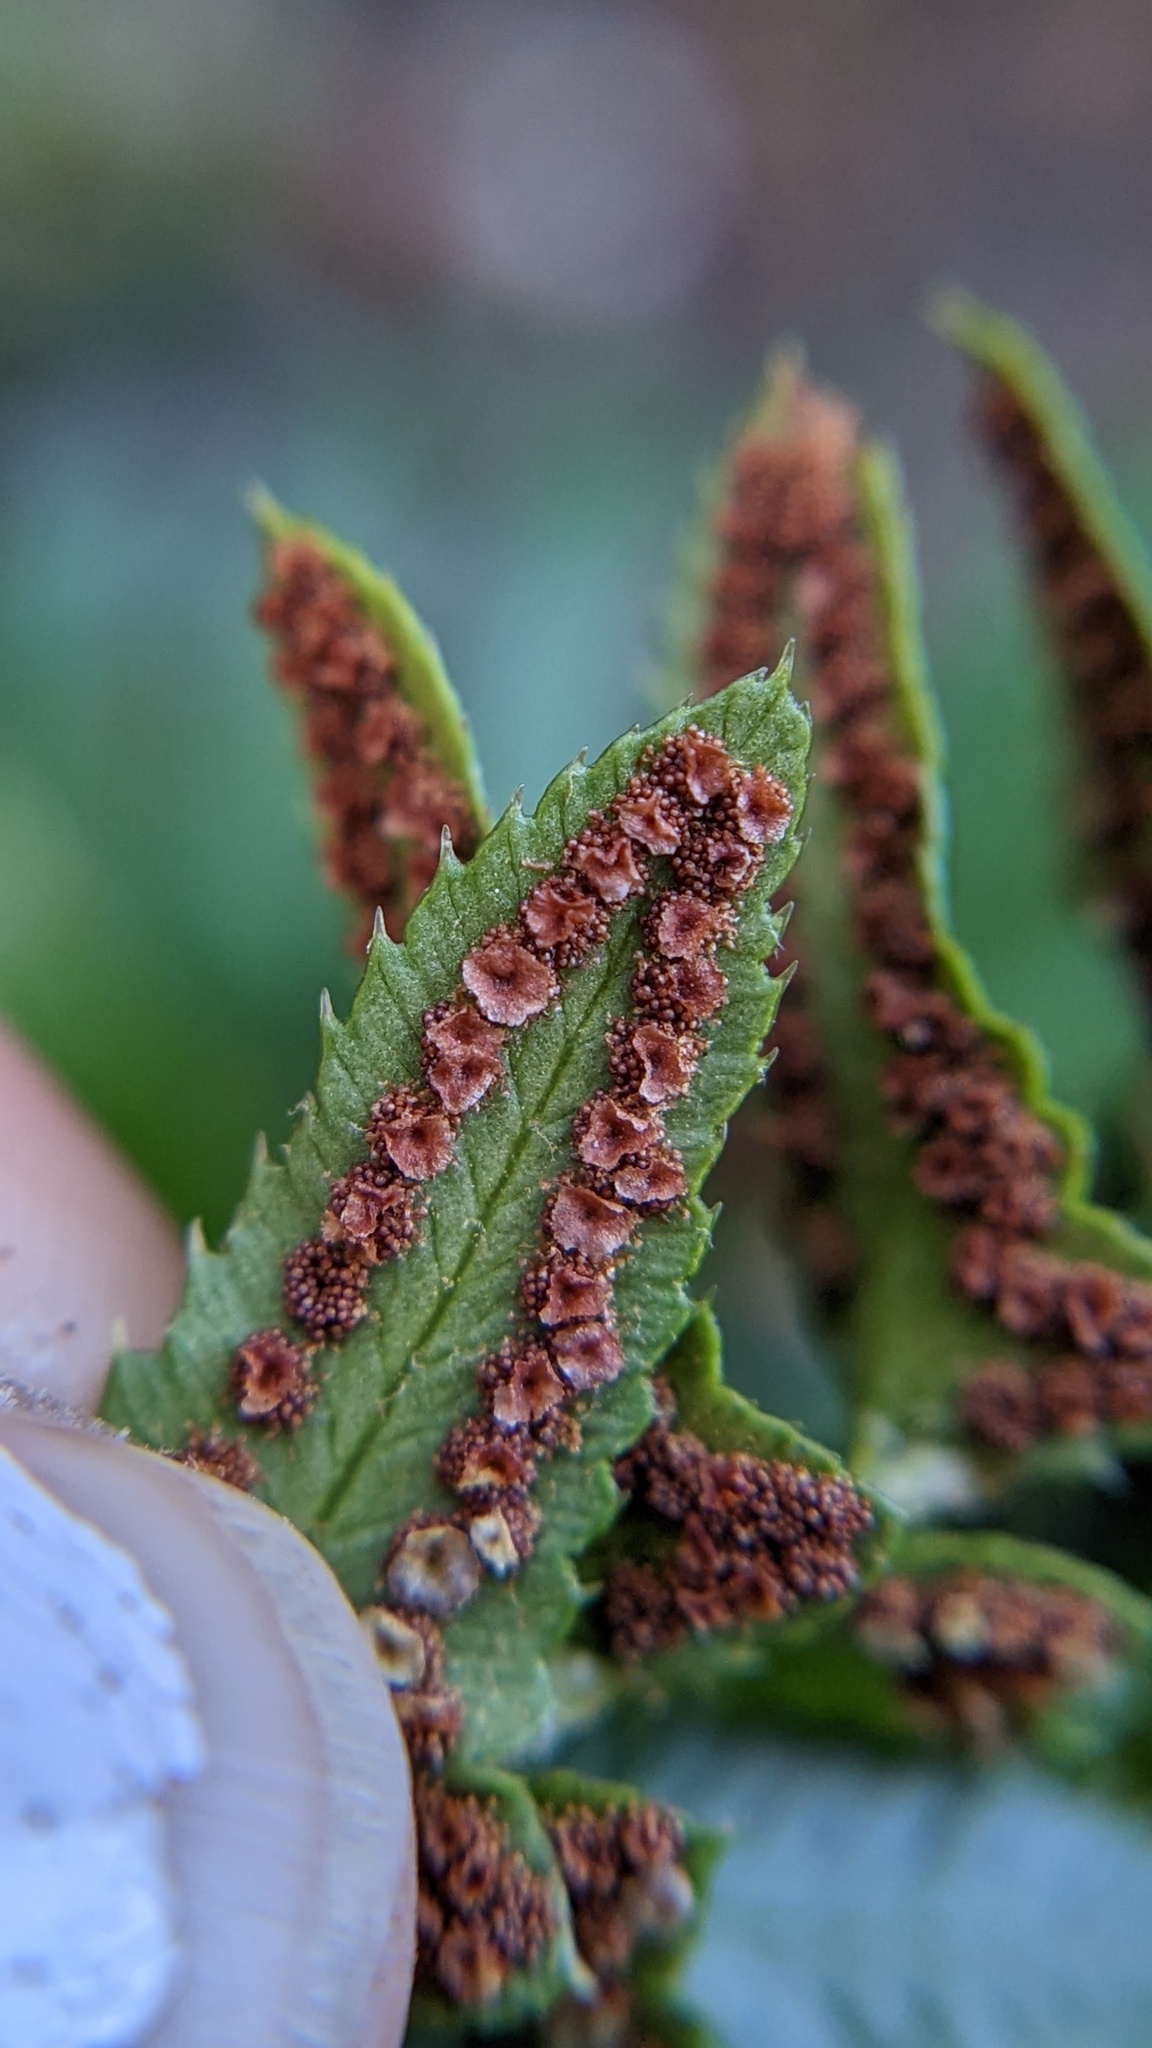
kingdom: Plantae
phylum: Tracheophyta
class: Polypodiopsida
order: Polypodiales
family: Dryopteridaceae
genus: Polystichum
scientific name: Polystichum imbricans
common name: Dwarf western sword fern
